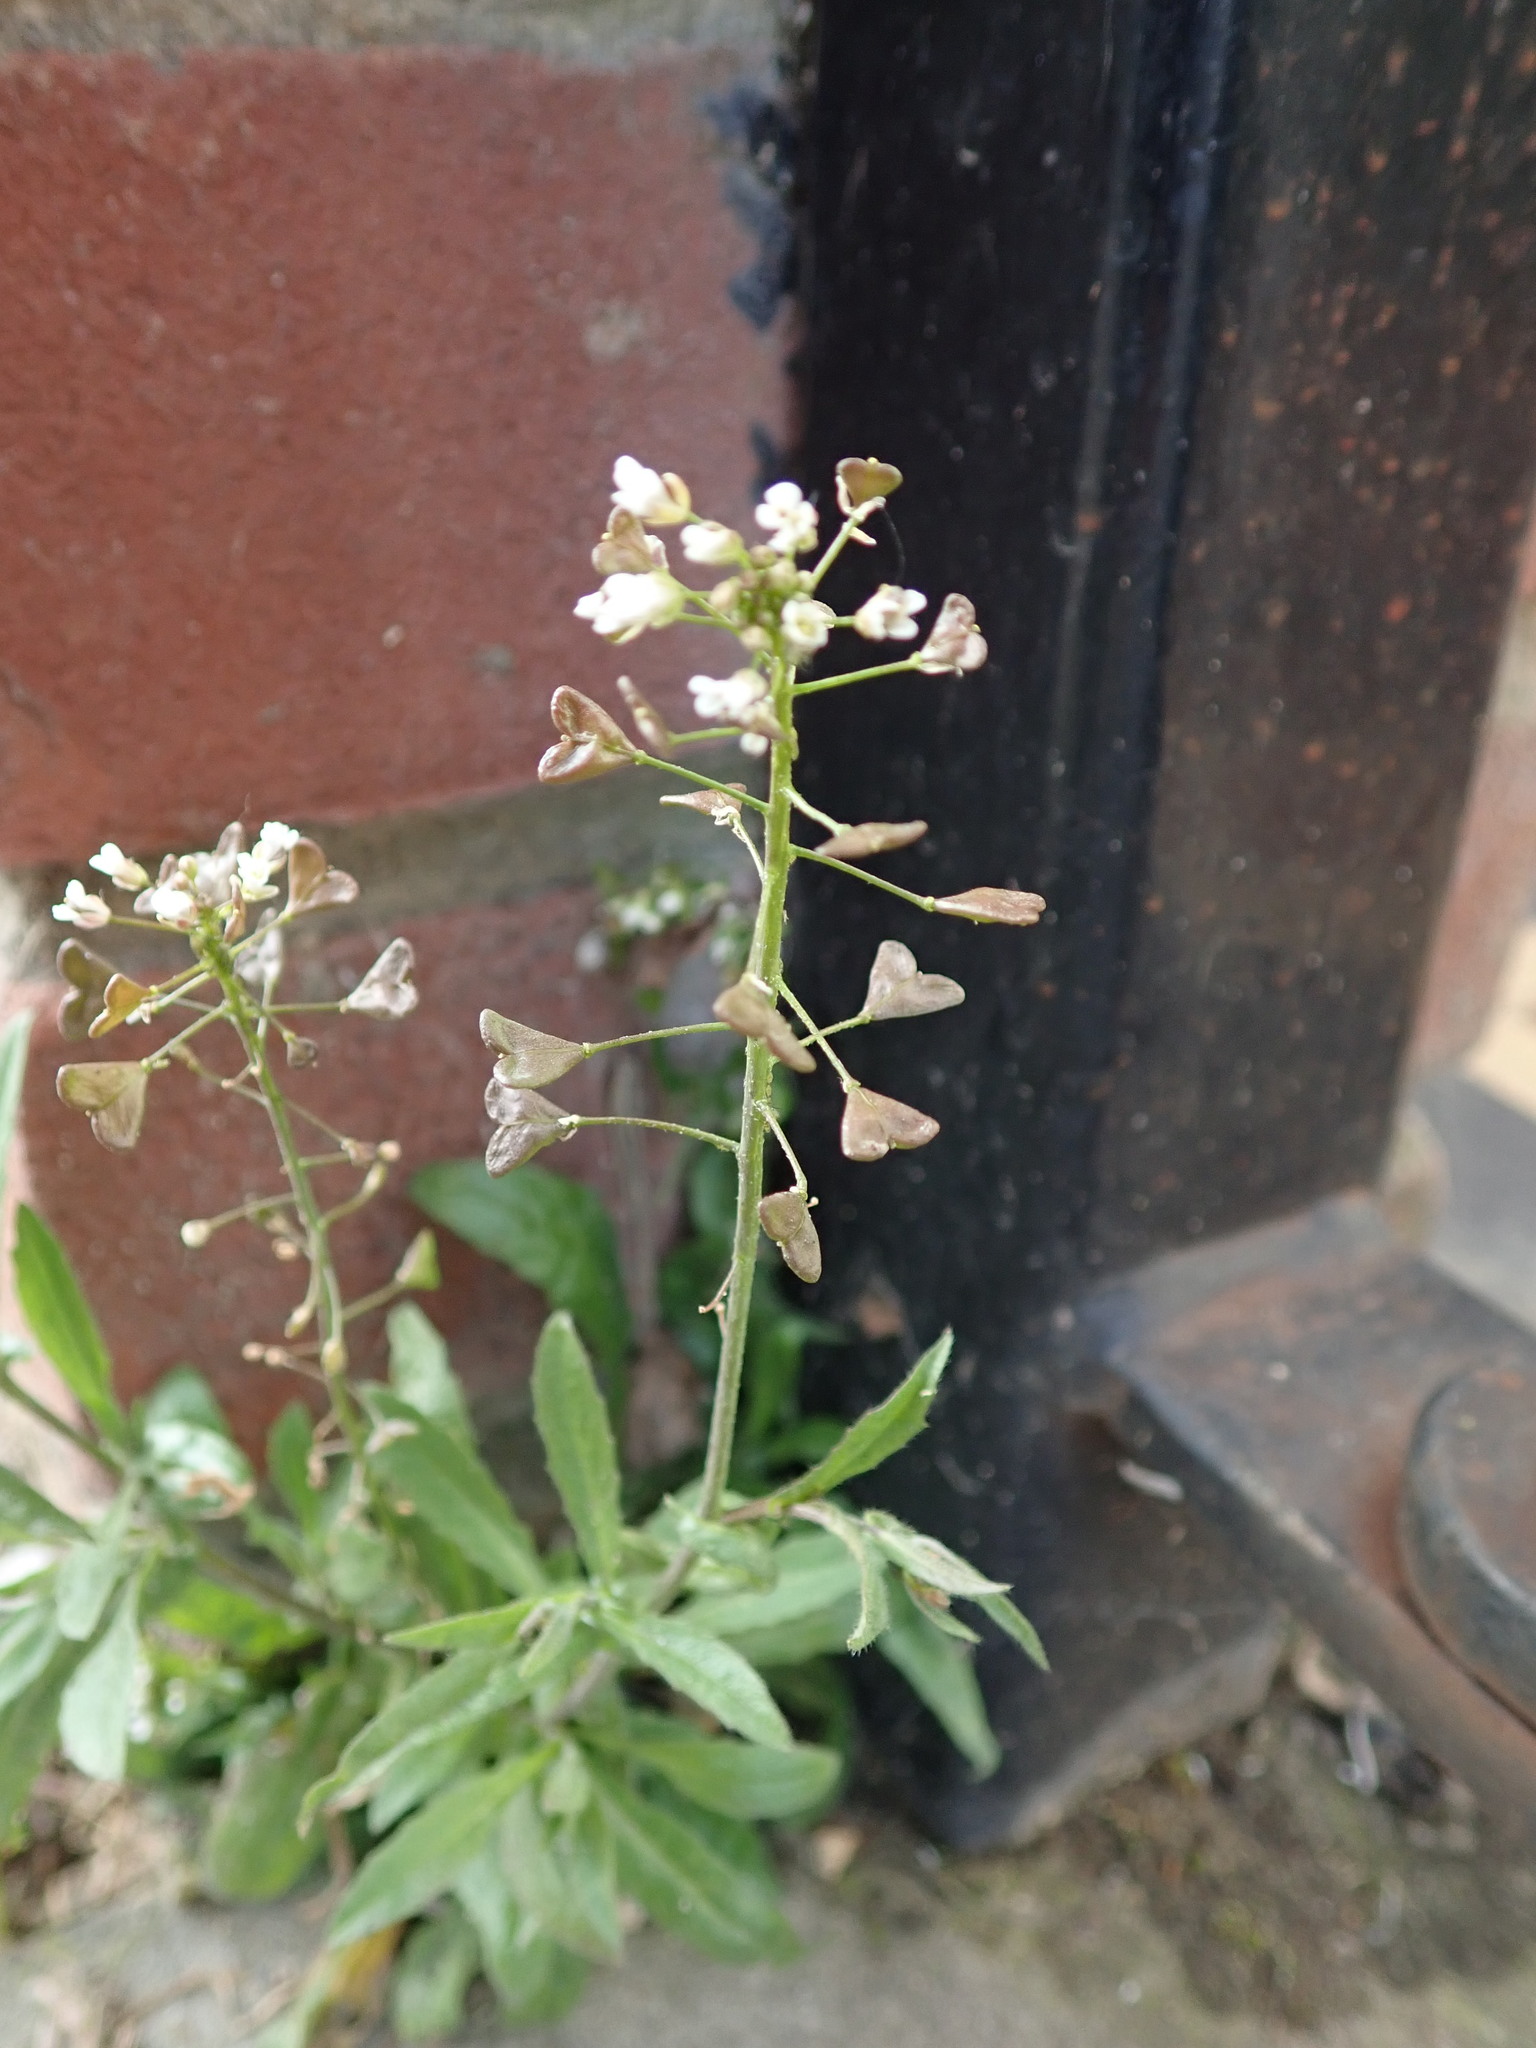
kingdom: Plantae
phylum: Tracheophyta
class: Magnoliopsida
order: Brassicales
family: Brassicaceae
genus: Capsella
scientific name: Capsella bursa-pastoris
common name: Shepherd's purse
